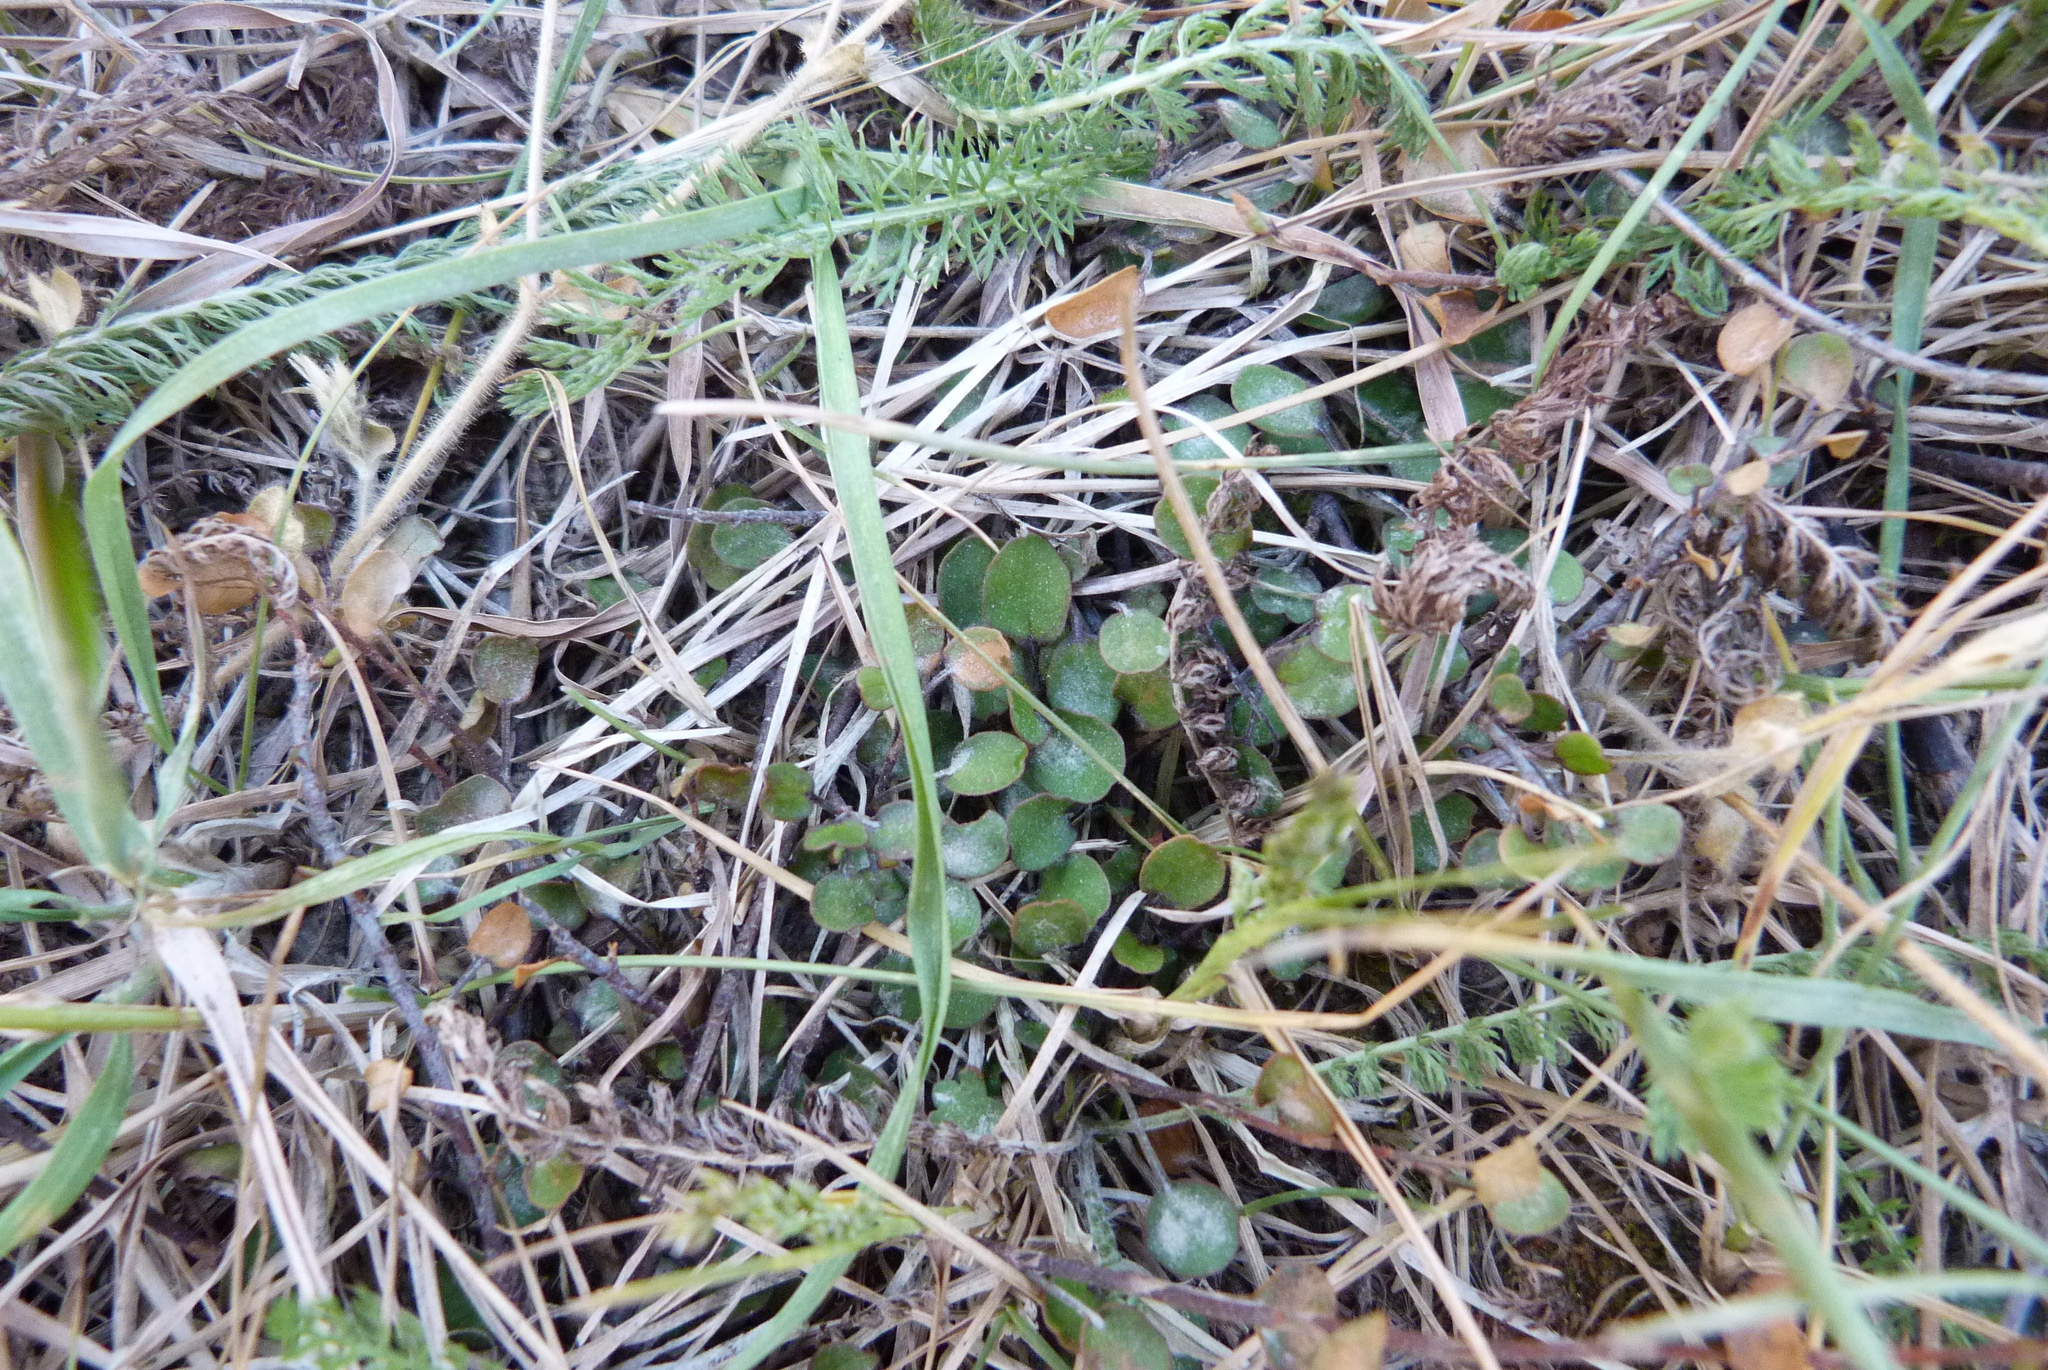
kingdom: Plantae
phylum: Tracheophyta
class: Magnoliopsida
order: Caryophyllales
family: Polygonaceae
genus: Muehlenbeckia
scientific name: Muehlenbeckia axillaris
